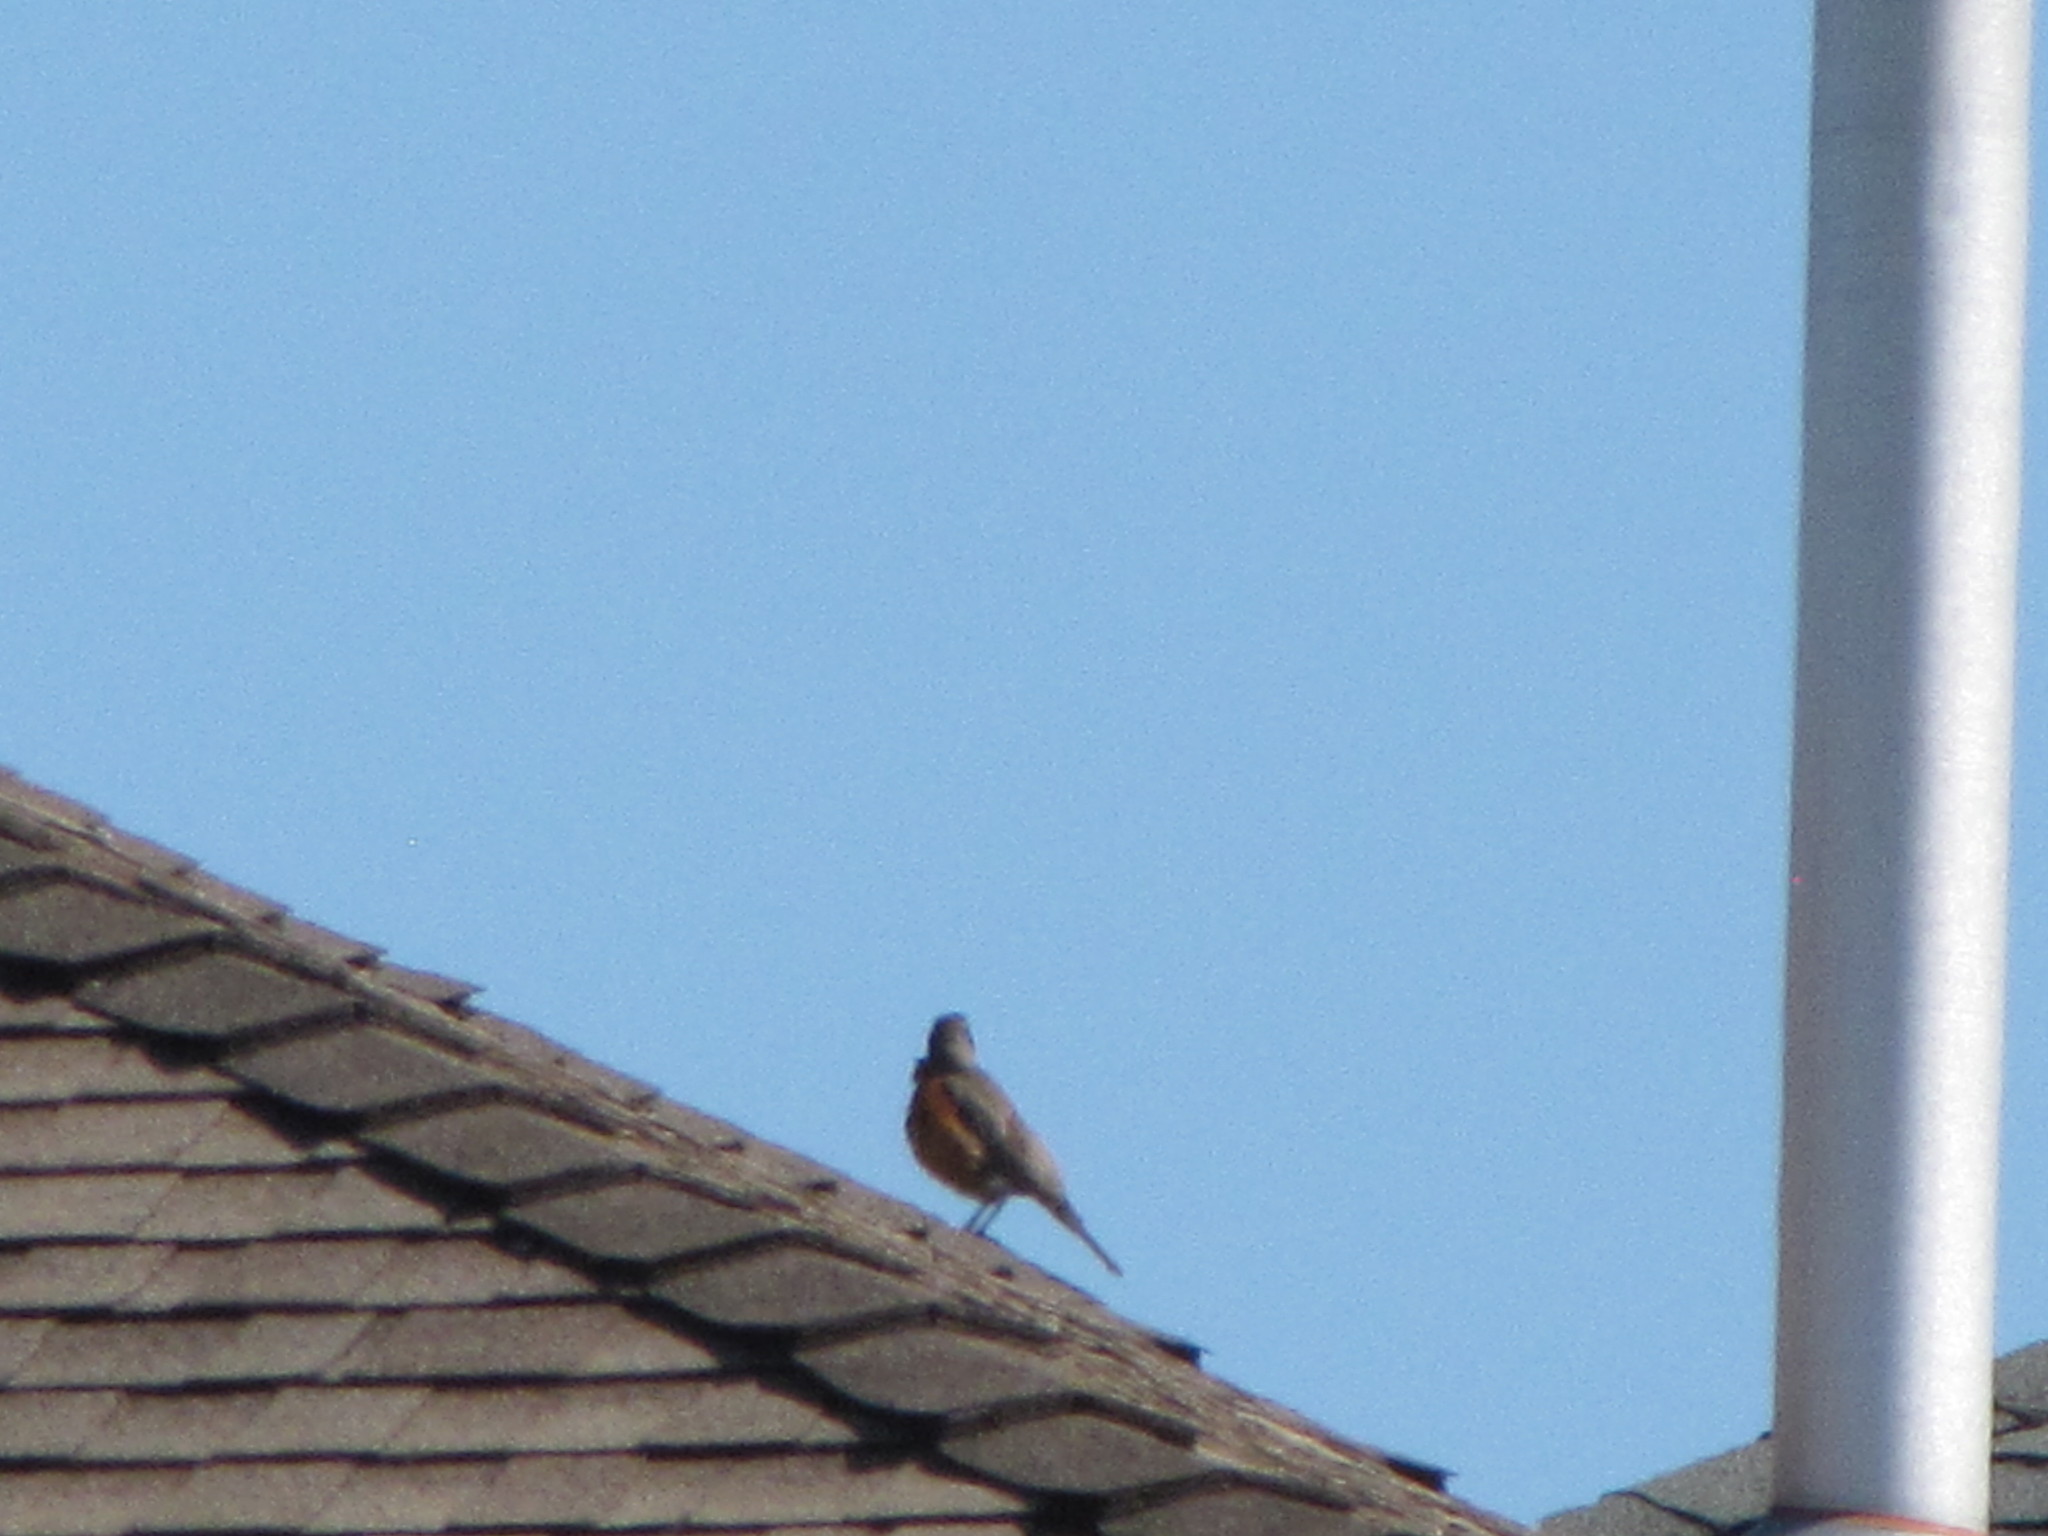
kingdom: Animalia
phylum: Chordata
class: Aves
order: Passeriformes
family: Turdidae
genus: Turdus
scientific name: Turdus migratorius
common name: American robin
